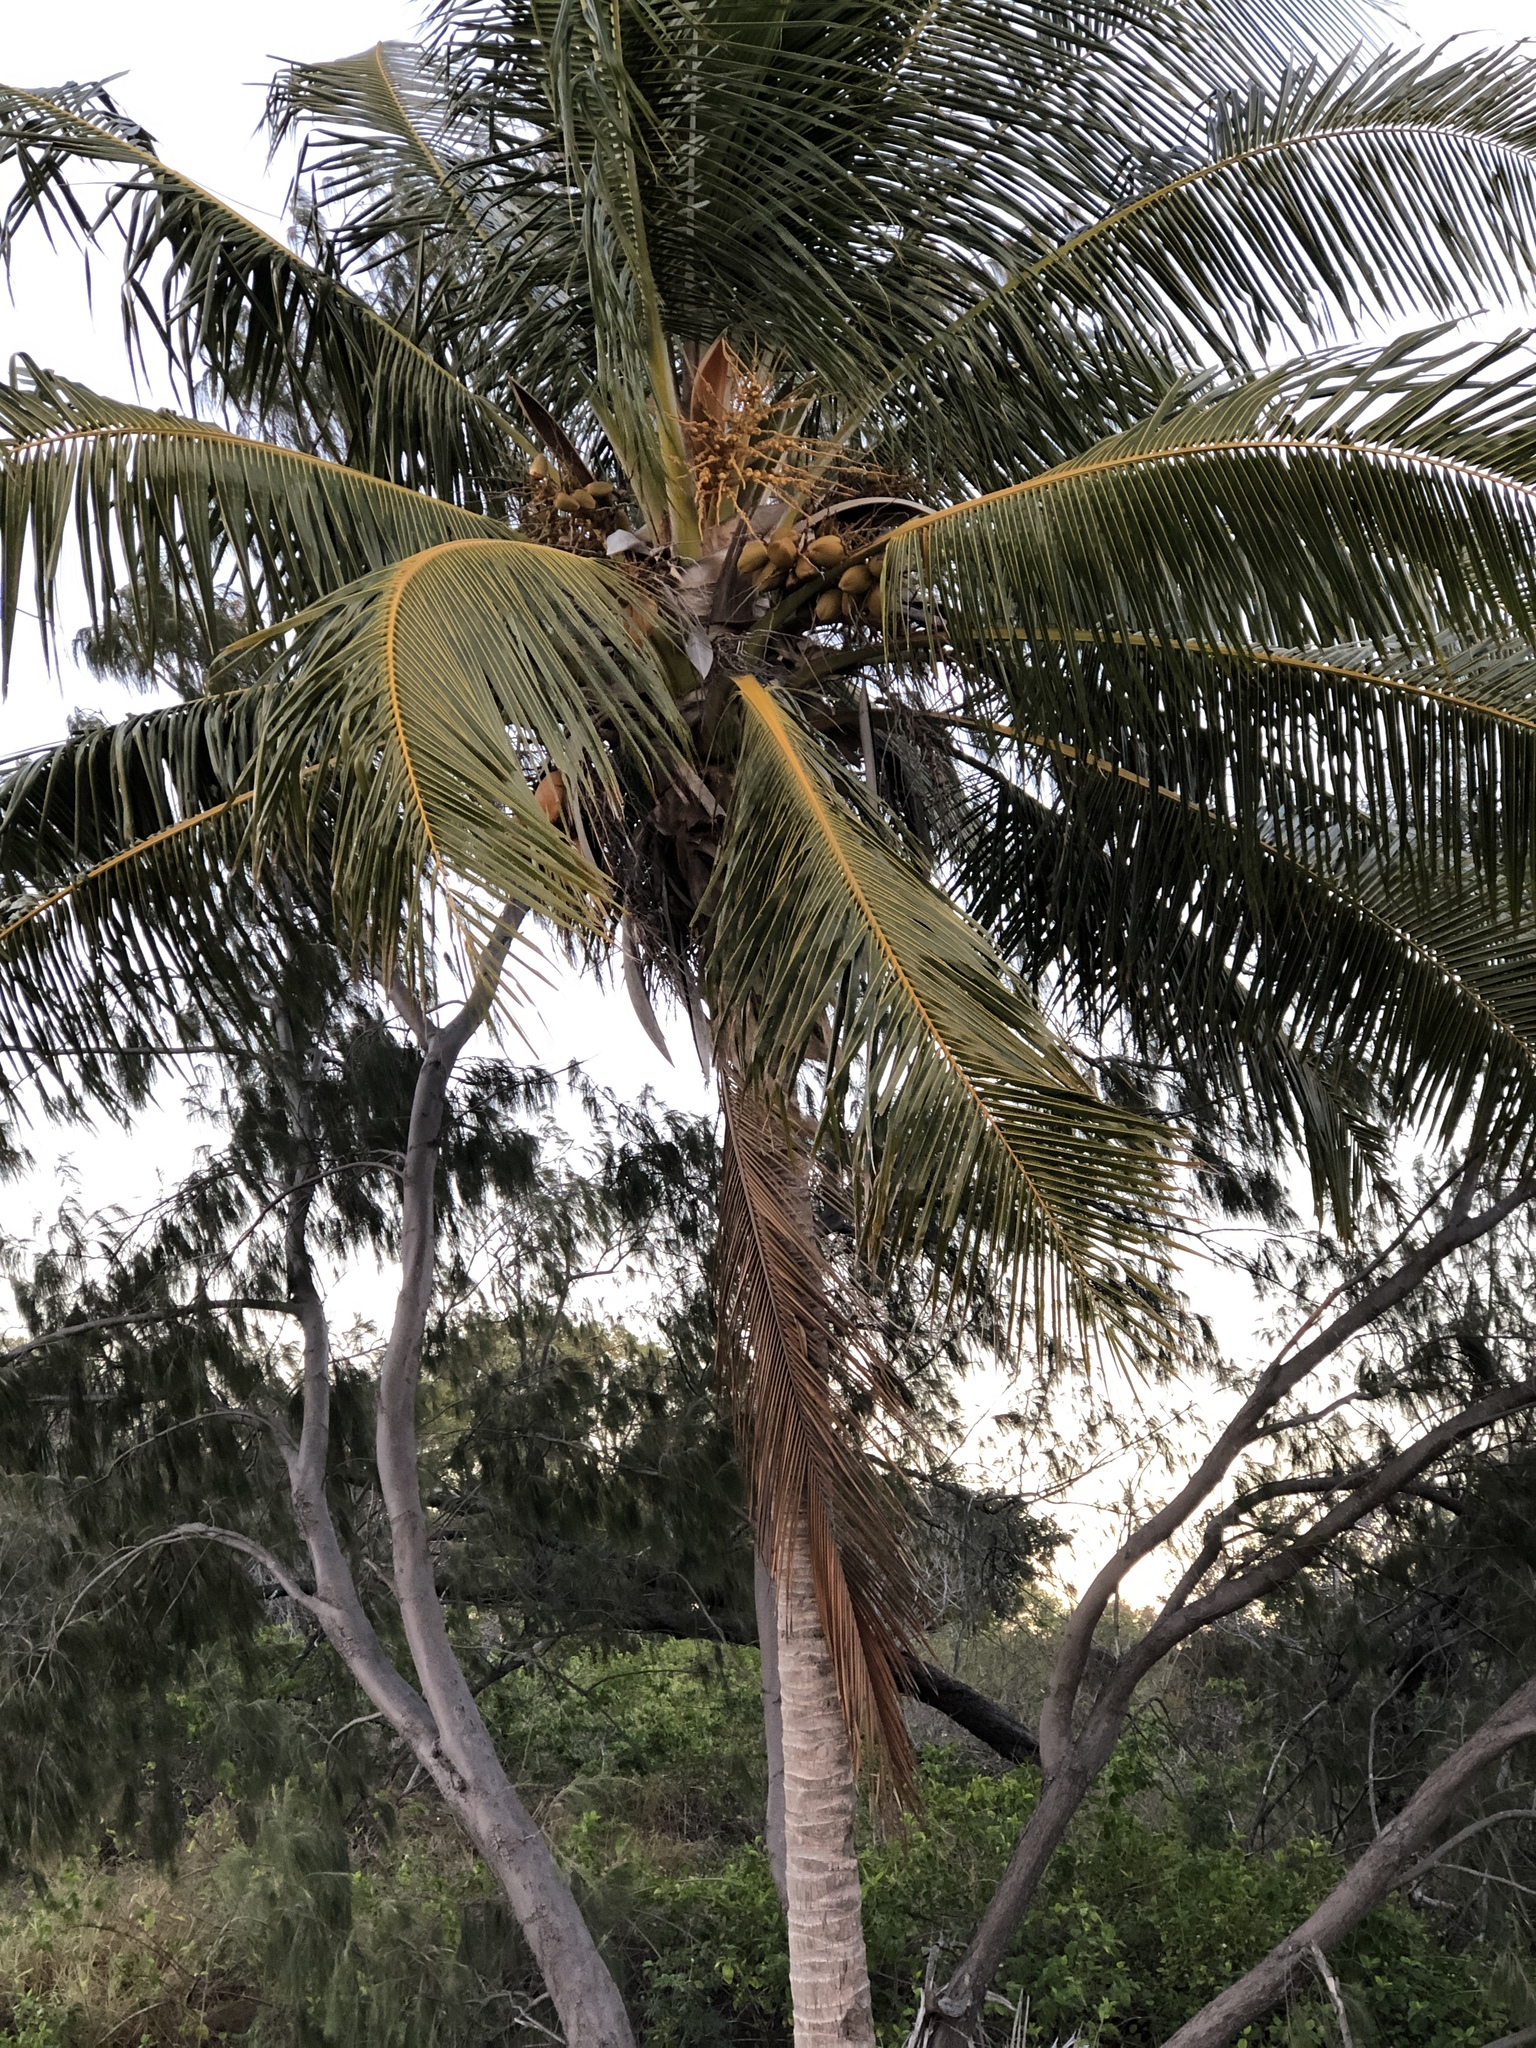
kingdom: Plantae
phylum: Tracheophyta
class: Liliopsida
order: Arecales
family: Arecaceae
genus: Cocos
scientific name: Cocos nucifera
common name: Coconut palm
